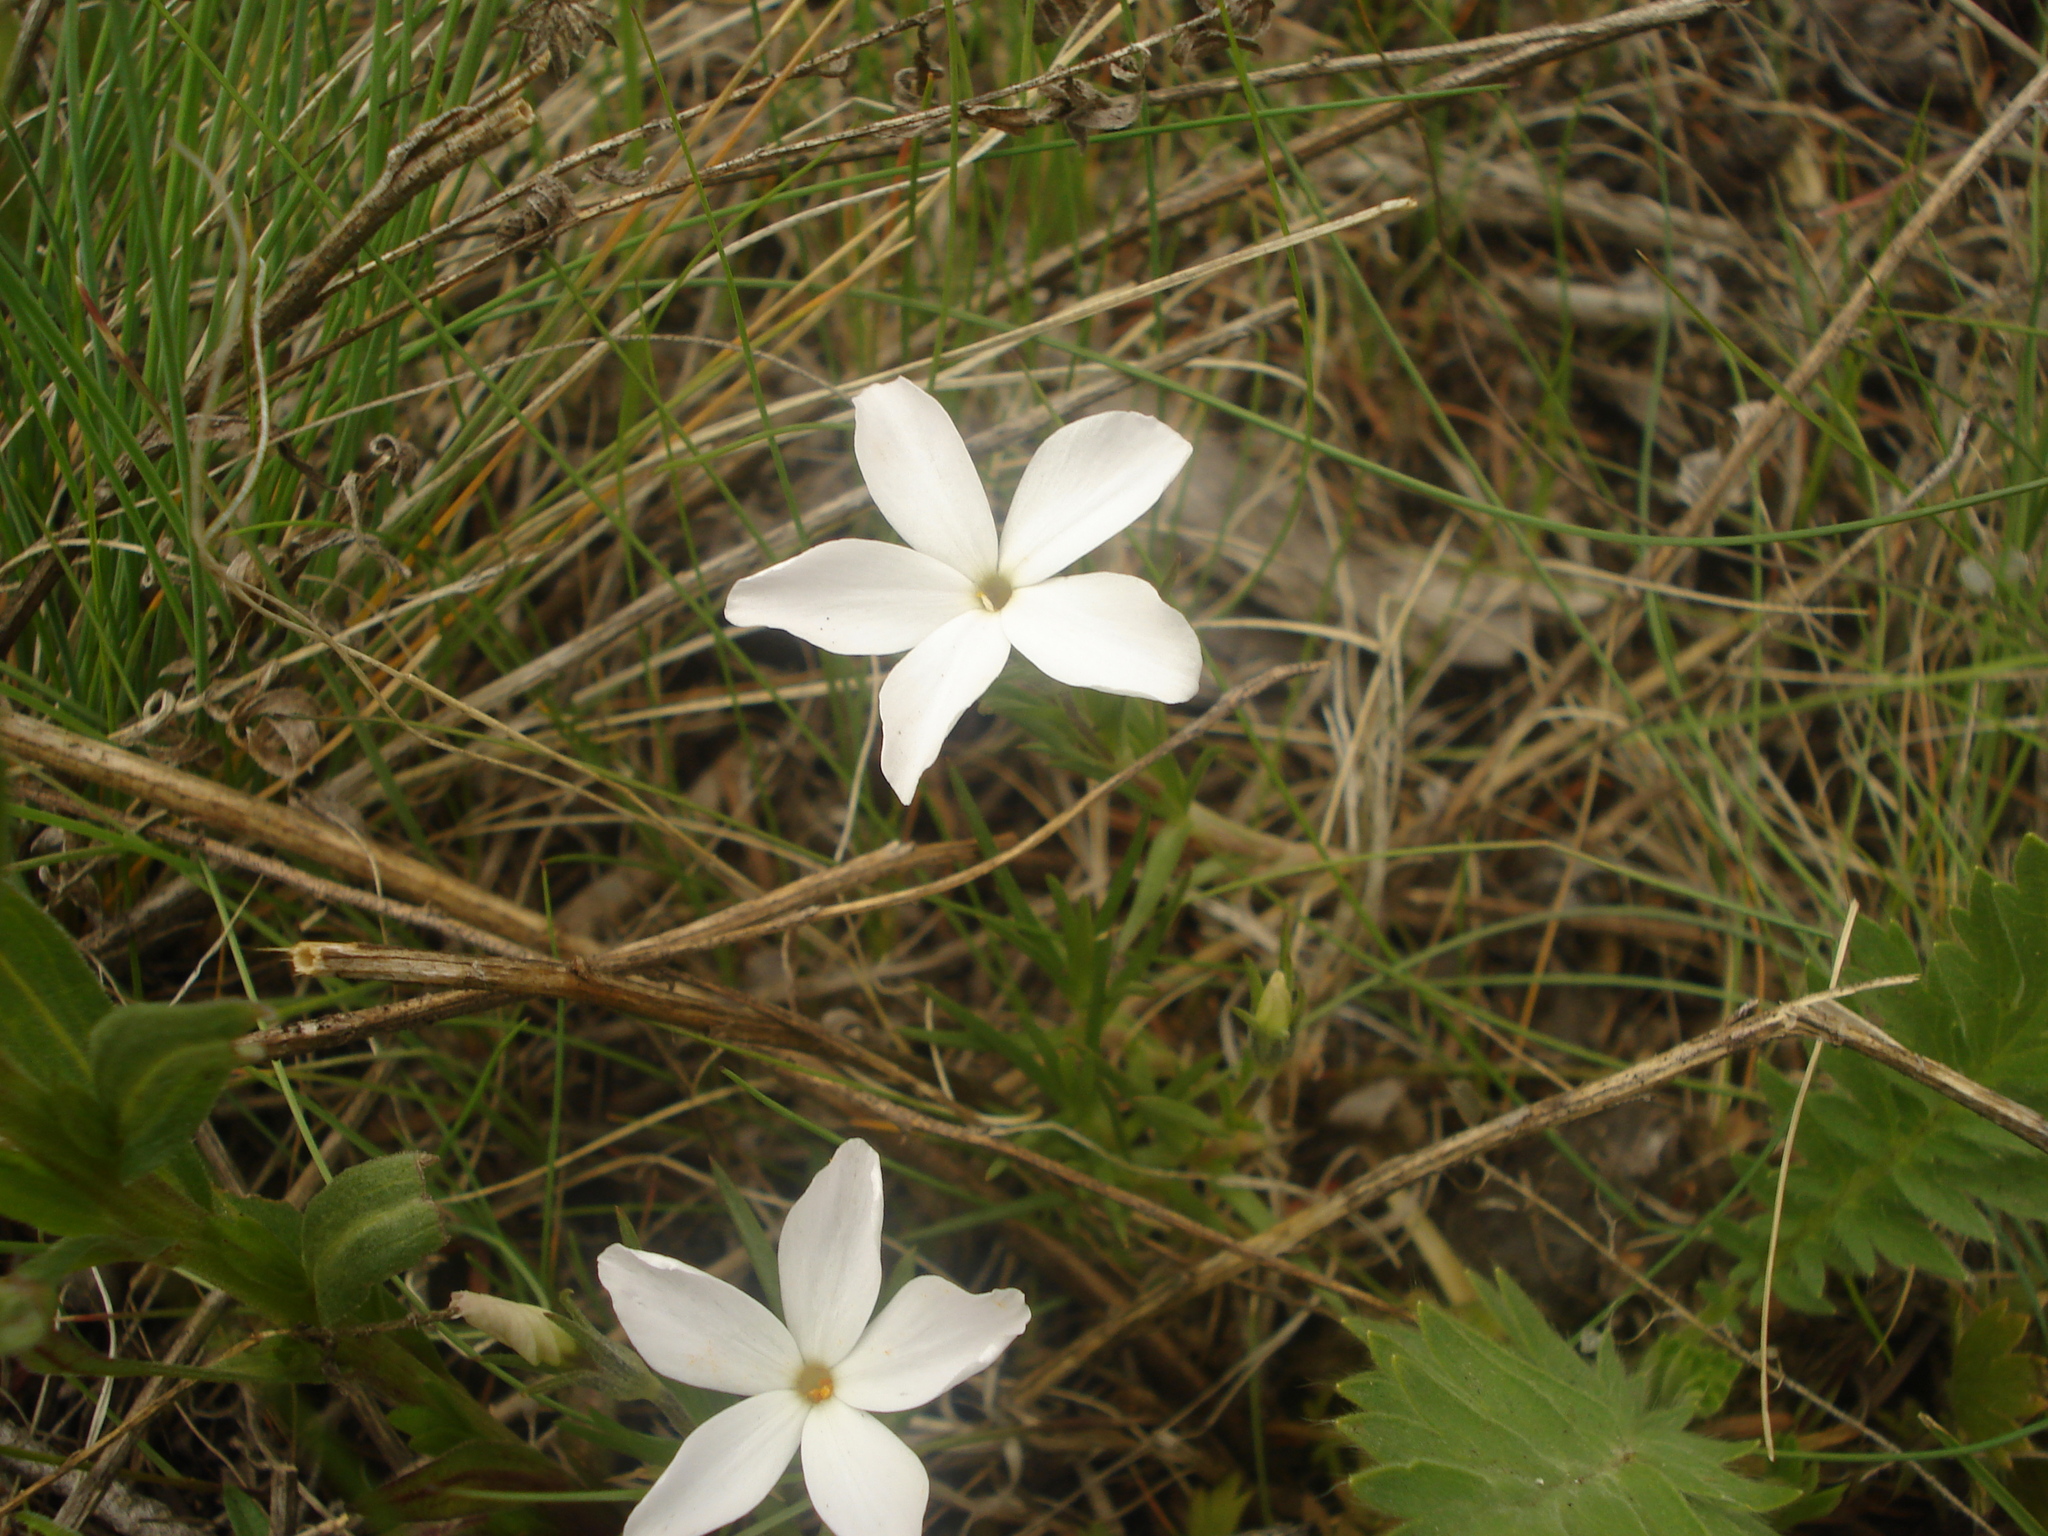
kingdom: Plantae
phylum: Tracheophyta
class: Magnoliopsida
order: Ericales
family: Polemoniaceae
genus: Phlox
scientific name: Phlox multiflora
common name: Rocky mountain phlox
